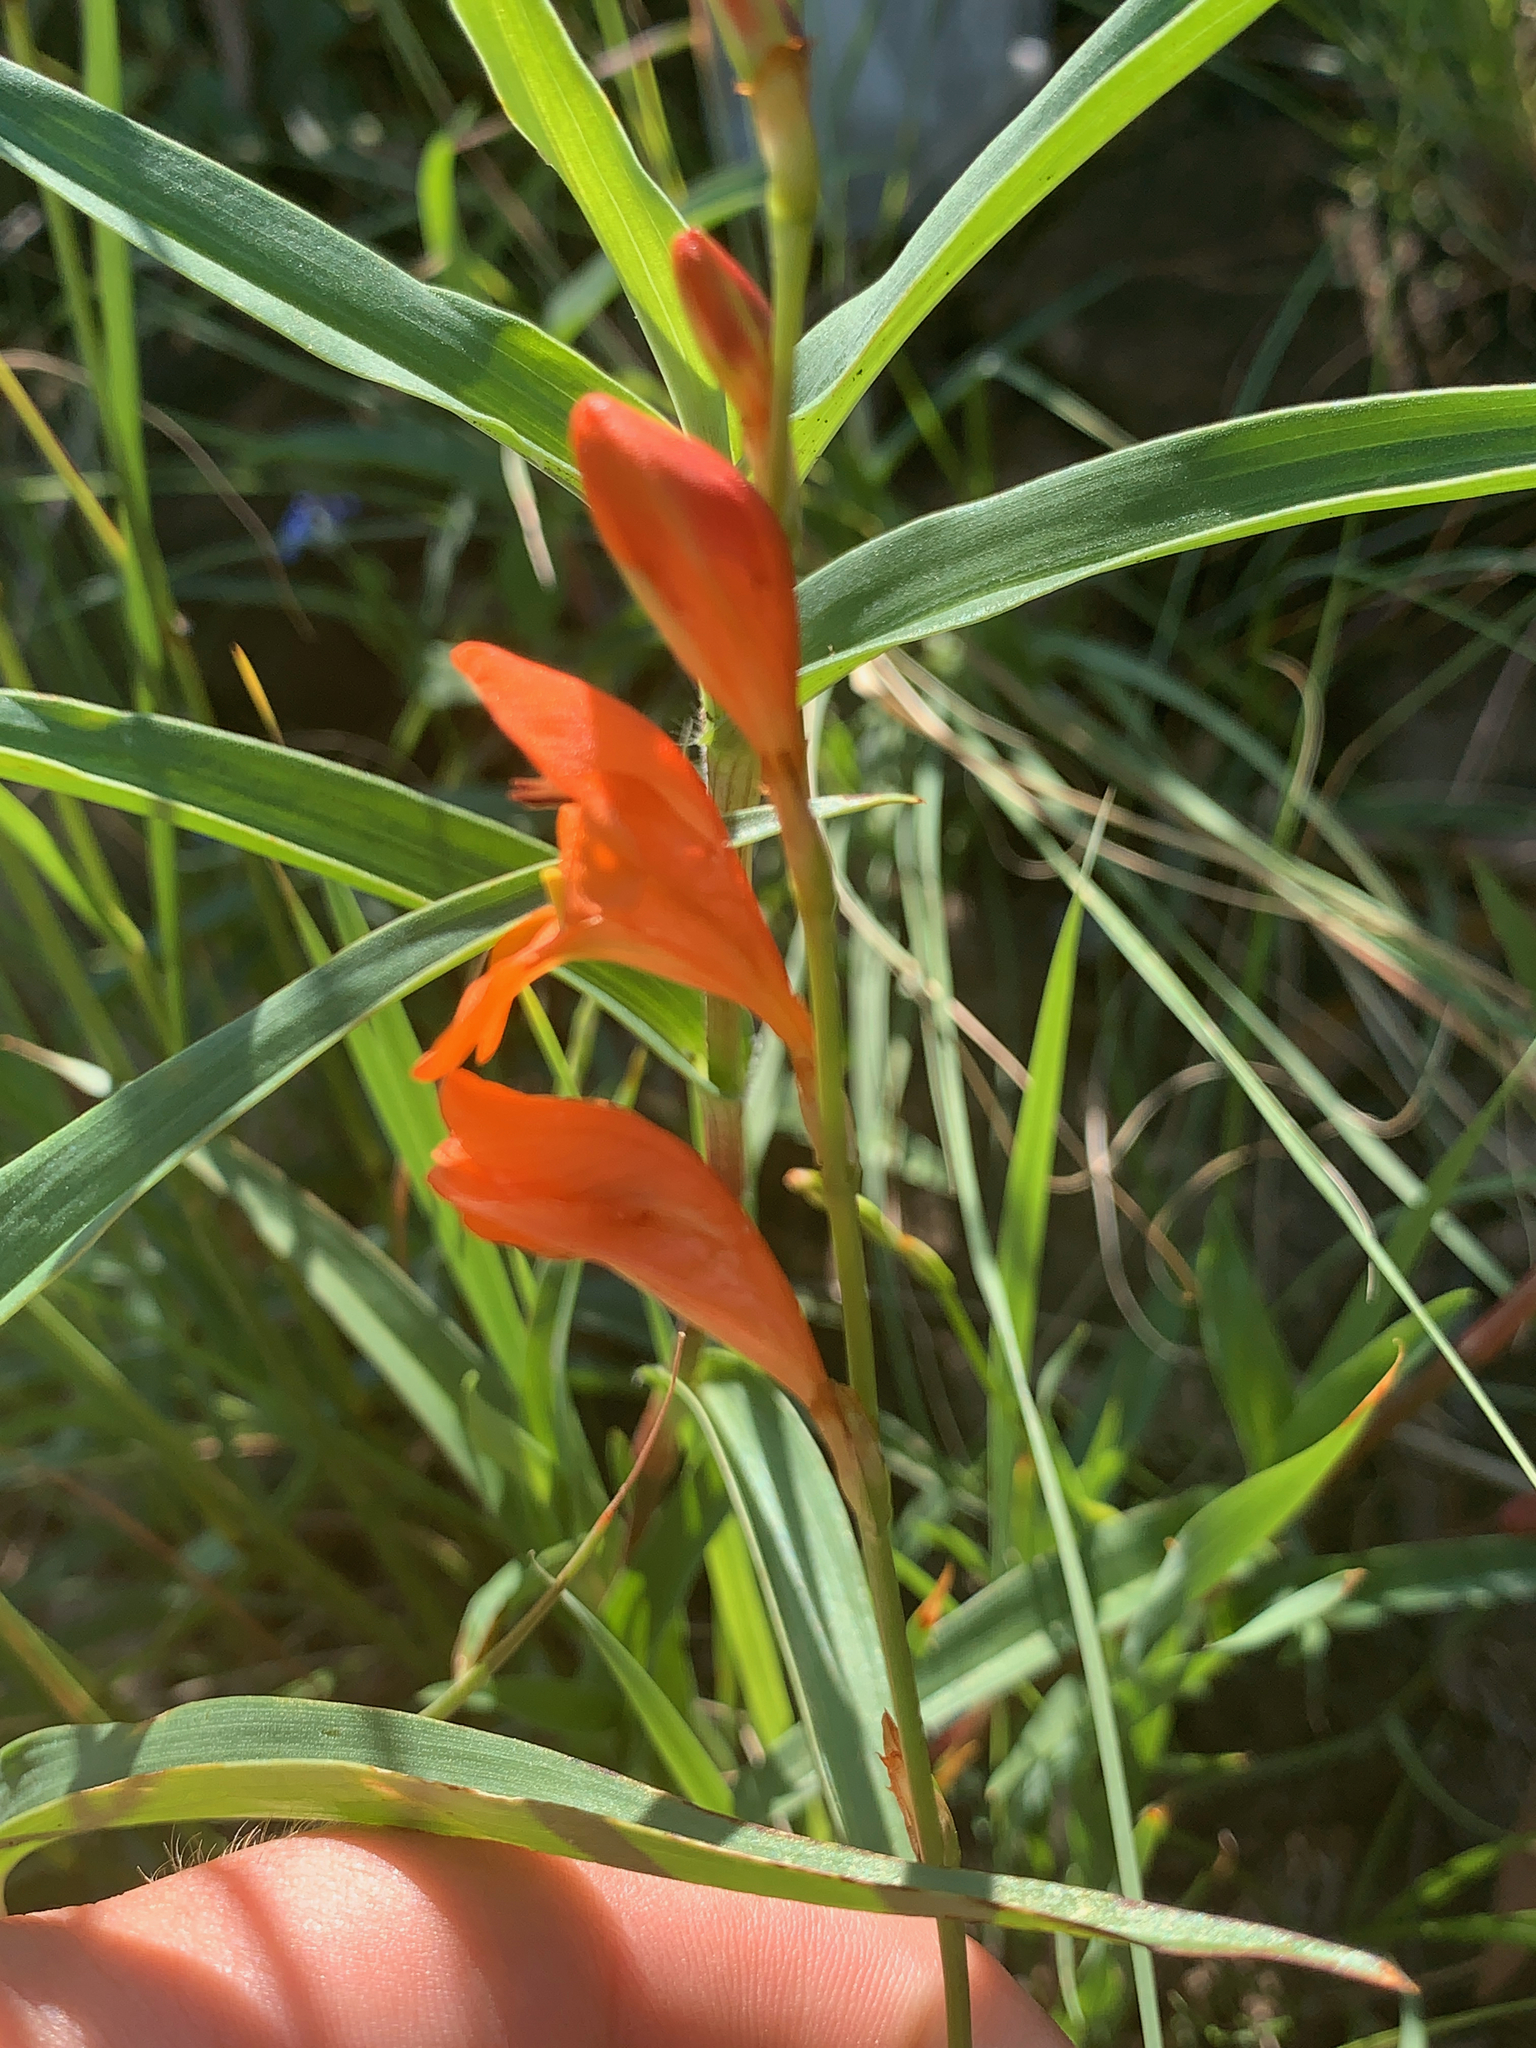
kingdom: Plantae
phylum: Tracheophyta
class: Liliopsida
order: Asparagales
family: Iridaceae
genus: Tritonia
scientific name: Tritonia nelsonii
